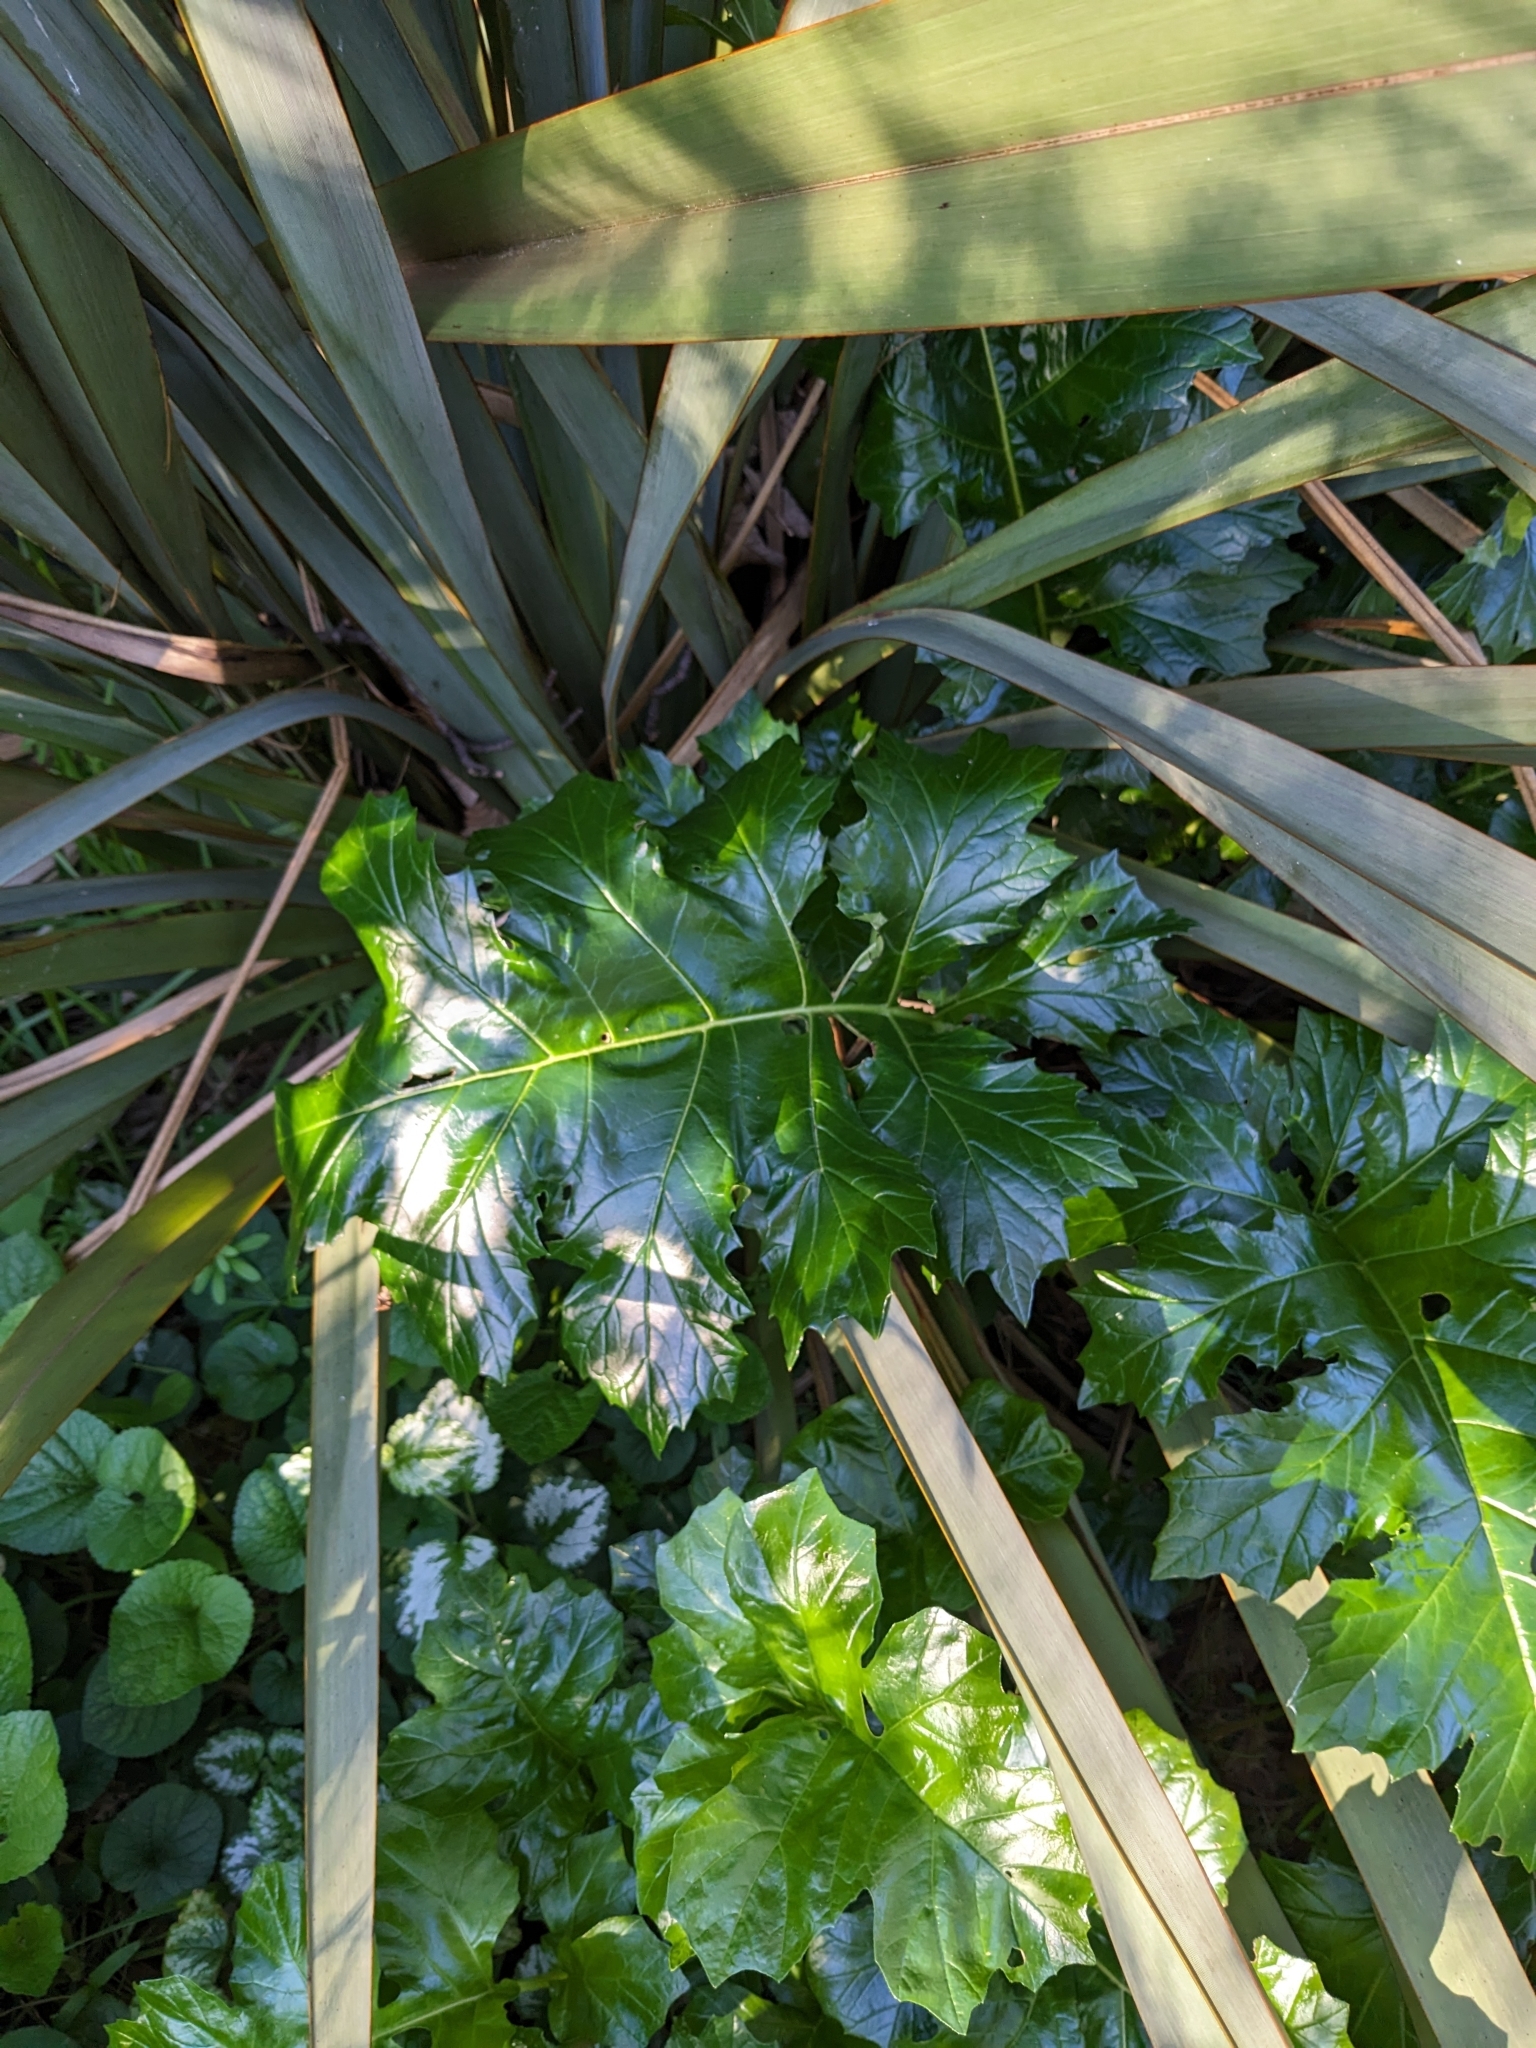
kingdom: Plantae
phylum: Tracheophyta
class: Magnoliopsida
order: Lamiales
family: Acanthaceae
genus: Acanthus
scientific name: Acanthus mollis
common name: Bear's-breech
